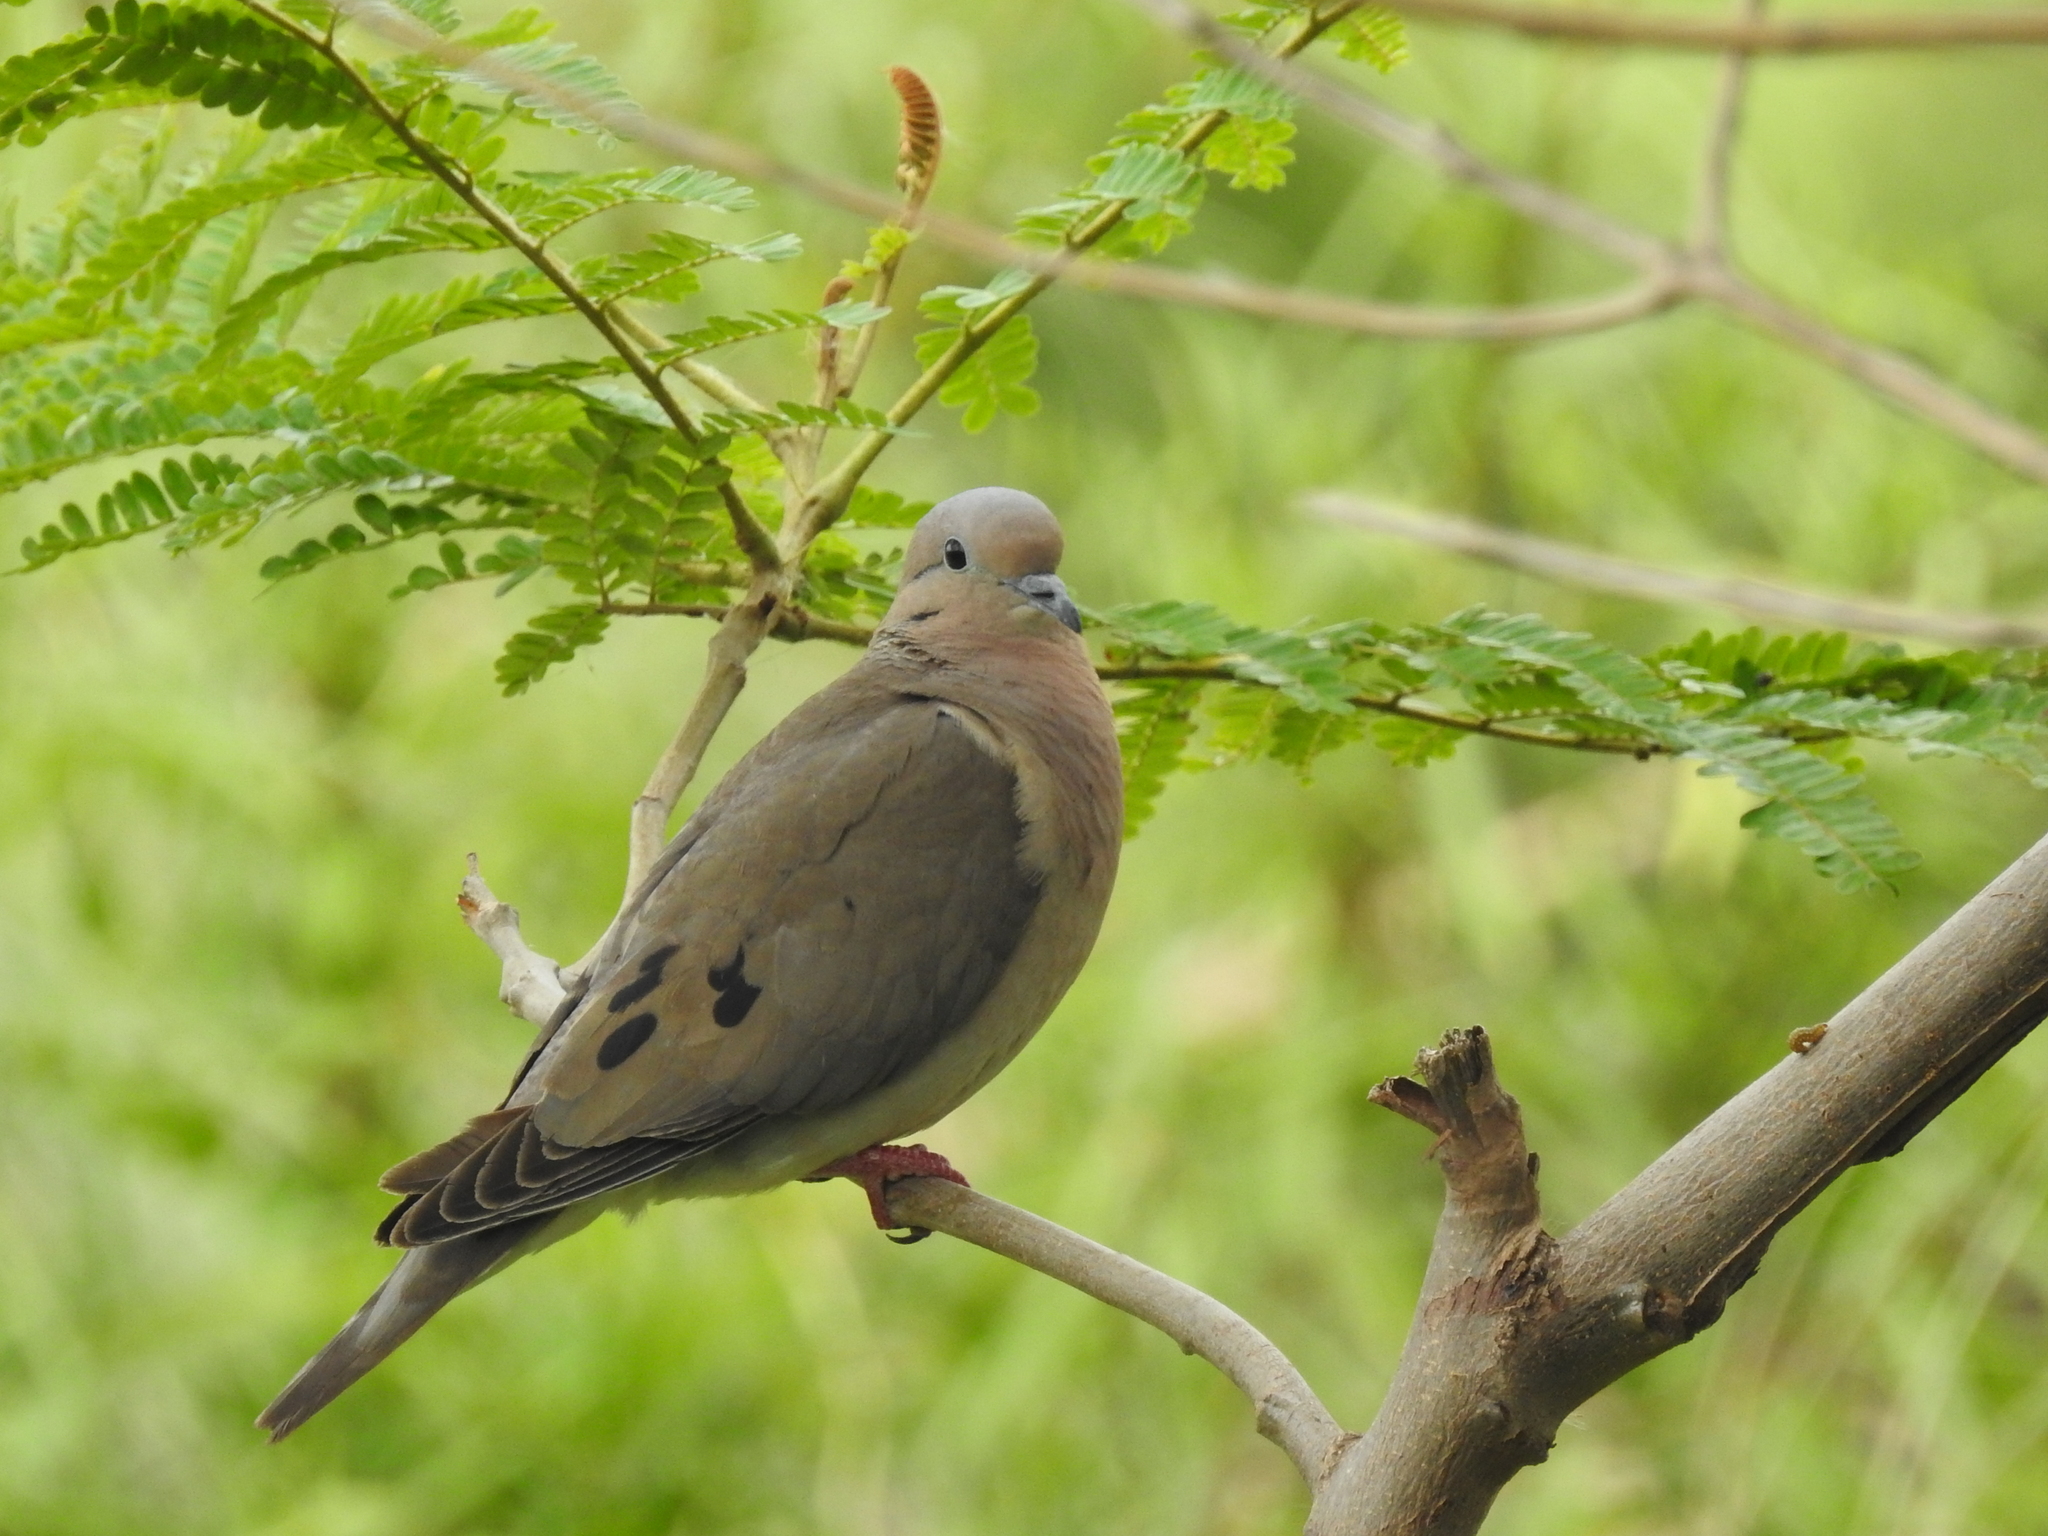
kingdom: Animalia
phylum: Chordata
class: Aves
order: Columbiformes
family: Columbidae
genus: Zenaida
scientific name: Zenaida auriculata
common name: Eared dove
